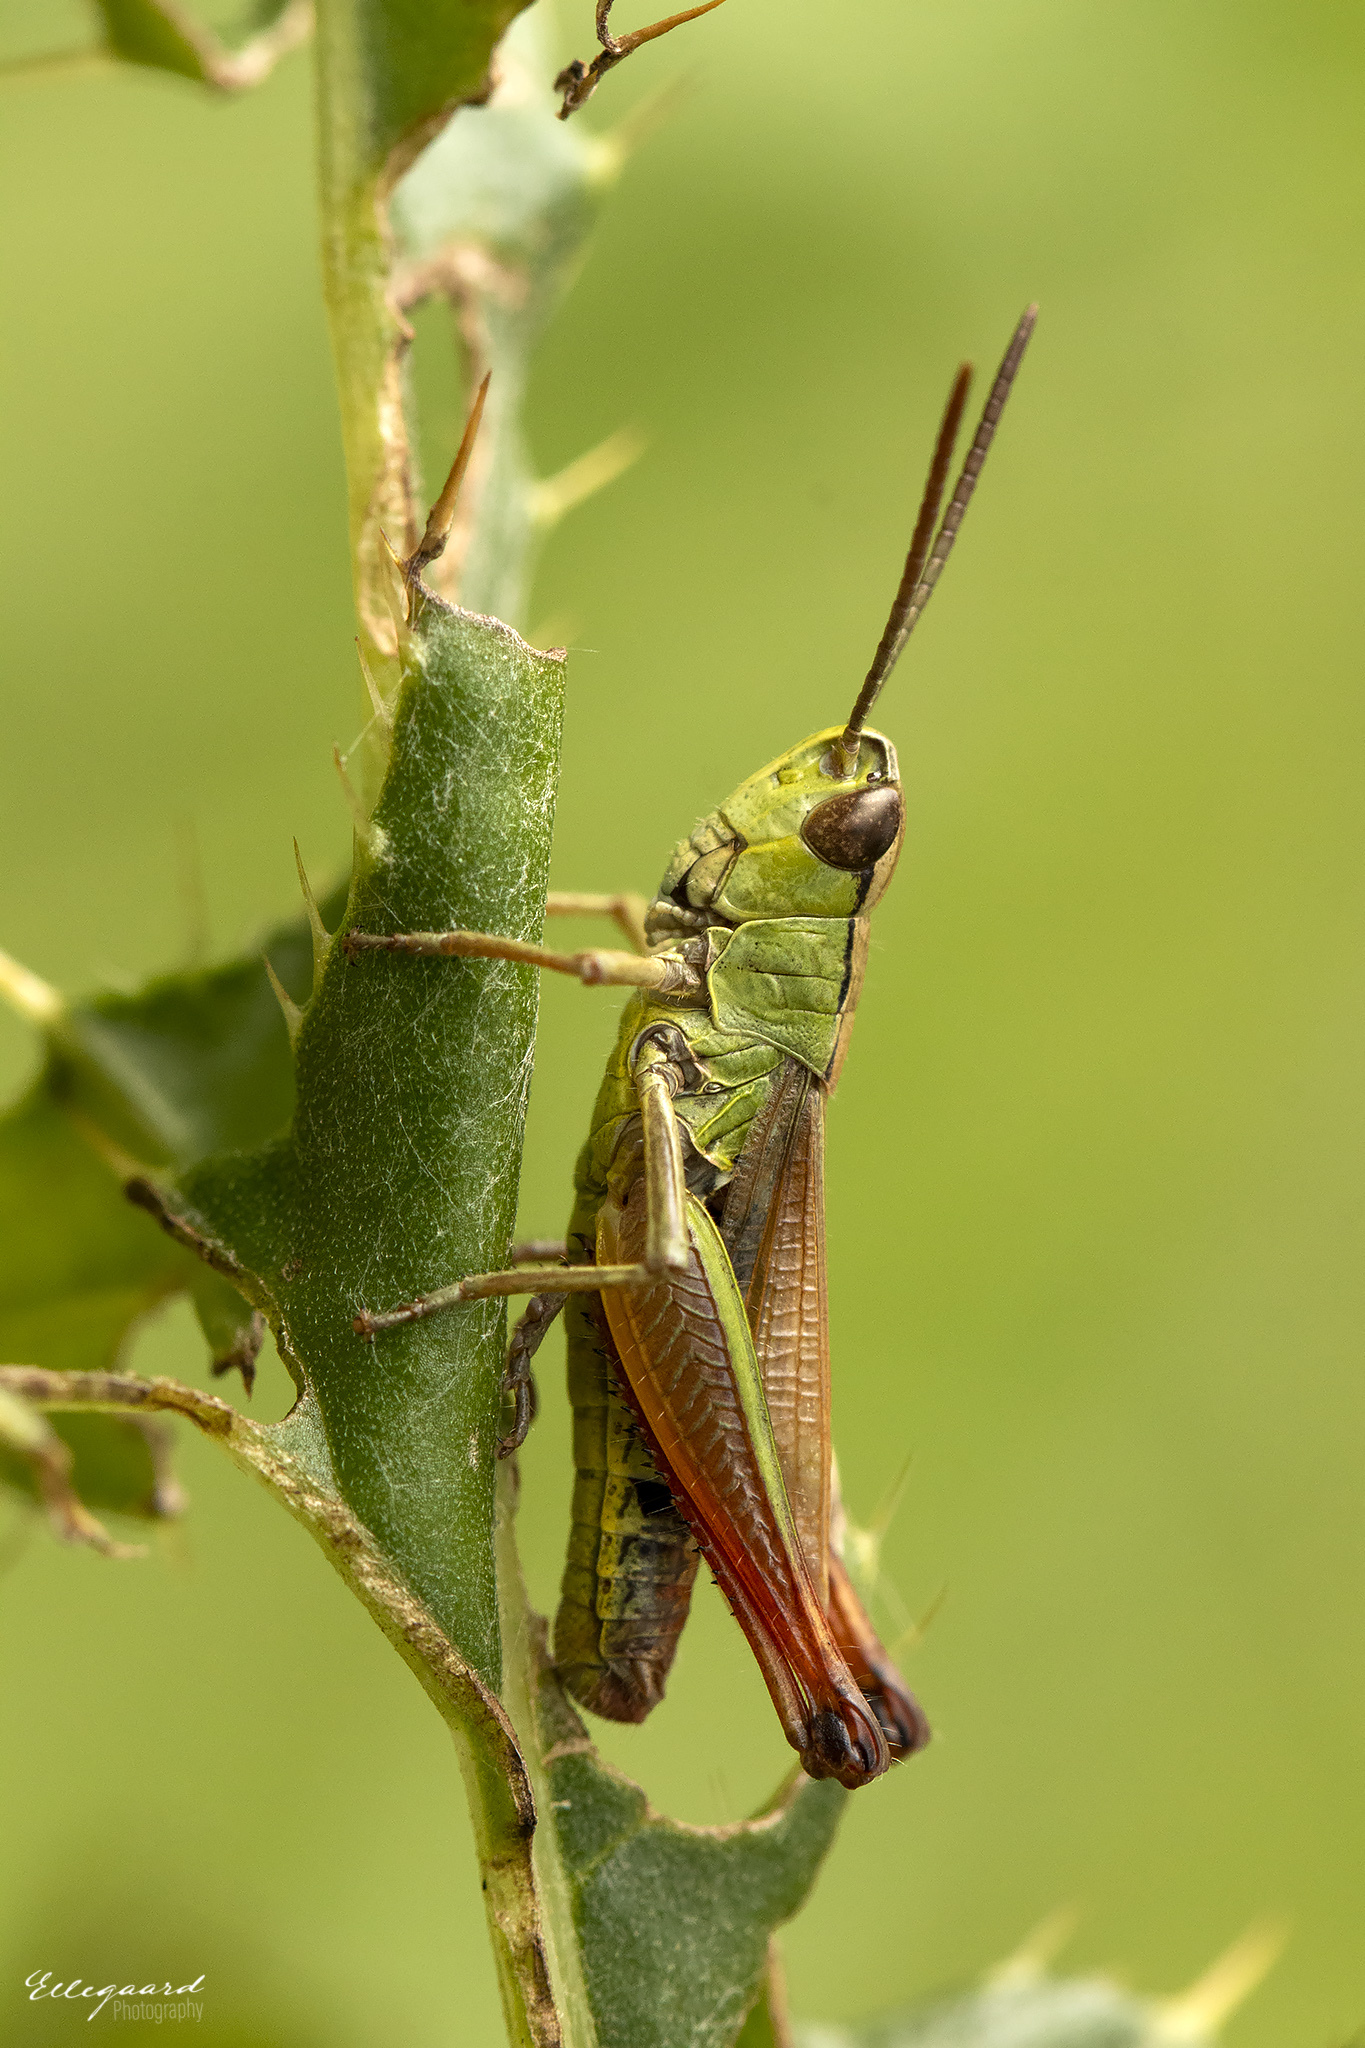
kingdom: Animalia
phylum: Arthropoda
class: Insecta
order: Orthoptera
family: Acrididae
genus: Pseudochorthippus
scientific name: Pseudochorthippus parallelus
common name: Meadow grasshopper
